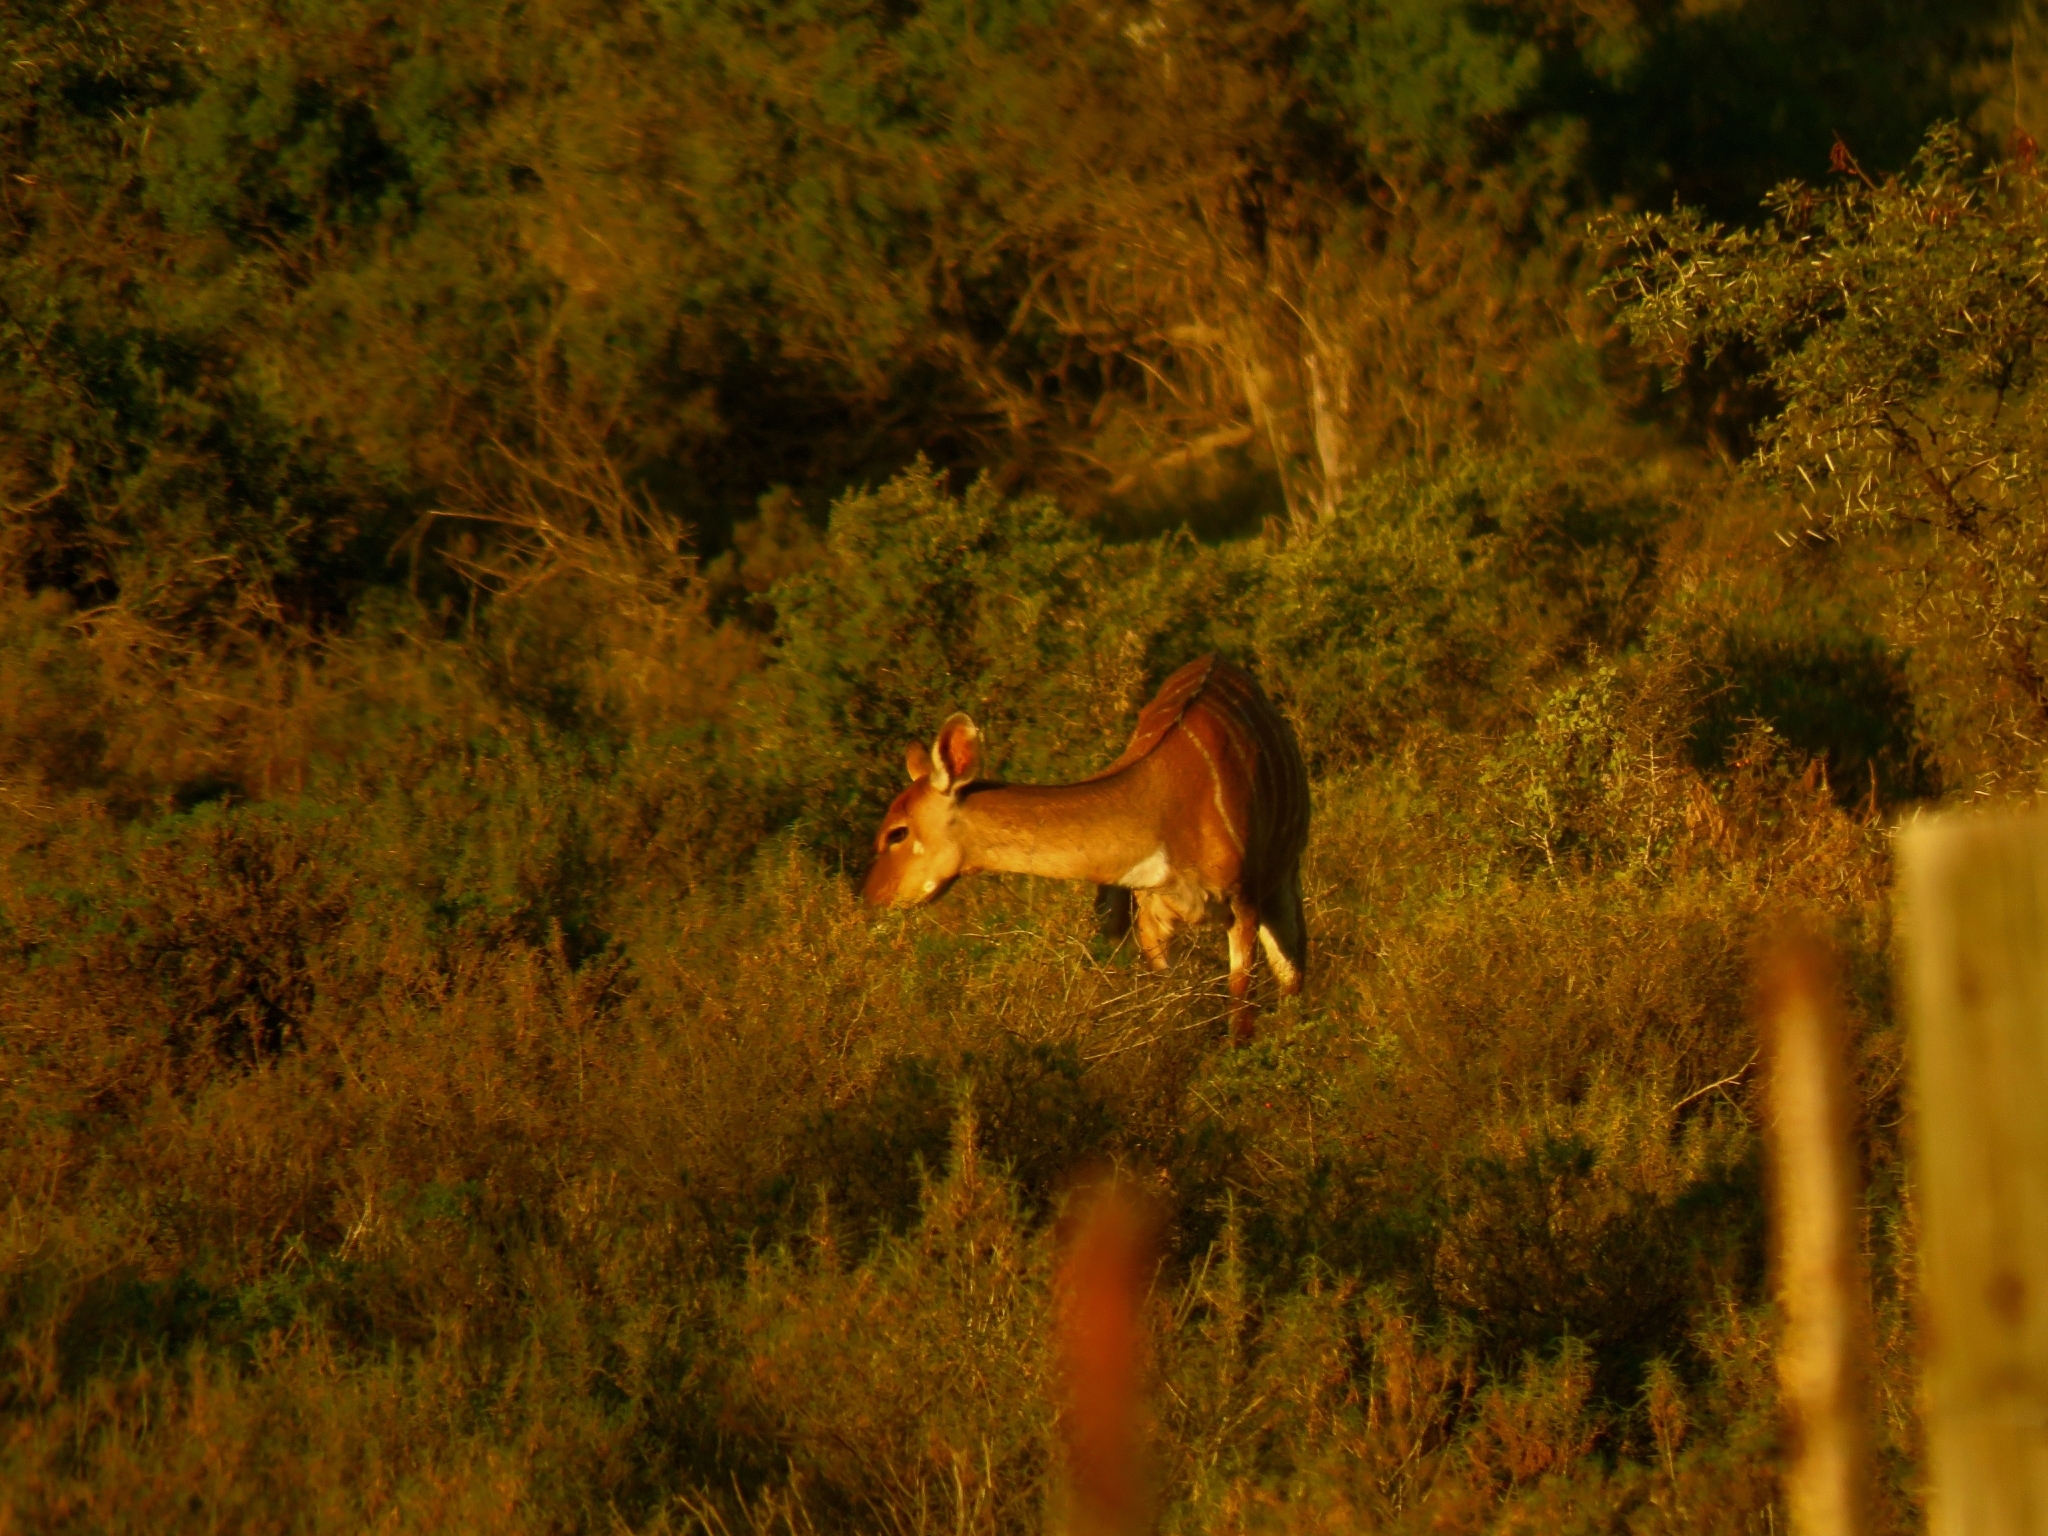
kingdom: Animalia
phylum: Chordata
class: Mammalia
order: Artiodactyla
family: Bovidae
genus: Tragelaphus
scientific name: Tragelaphus angasii
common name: Nyala
